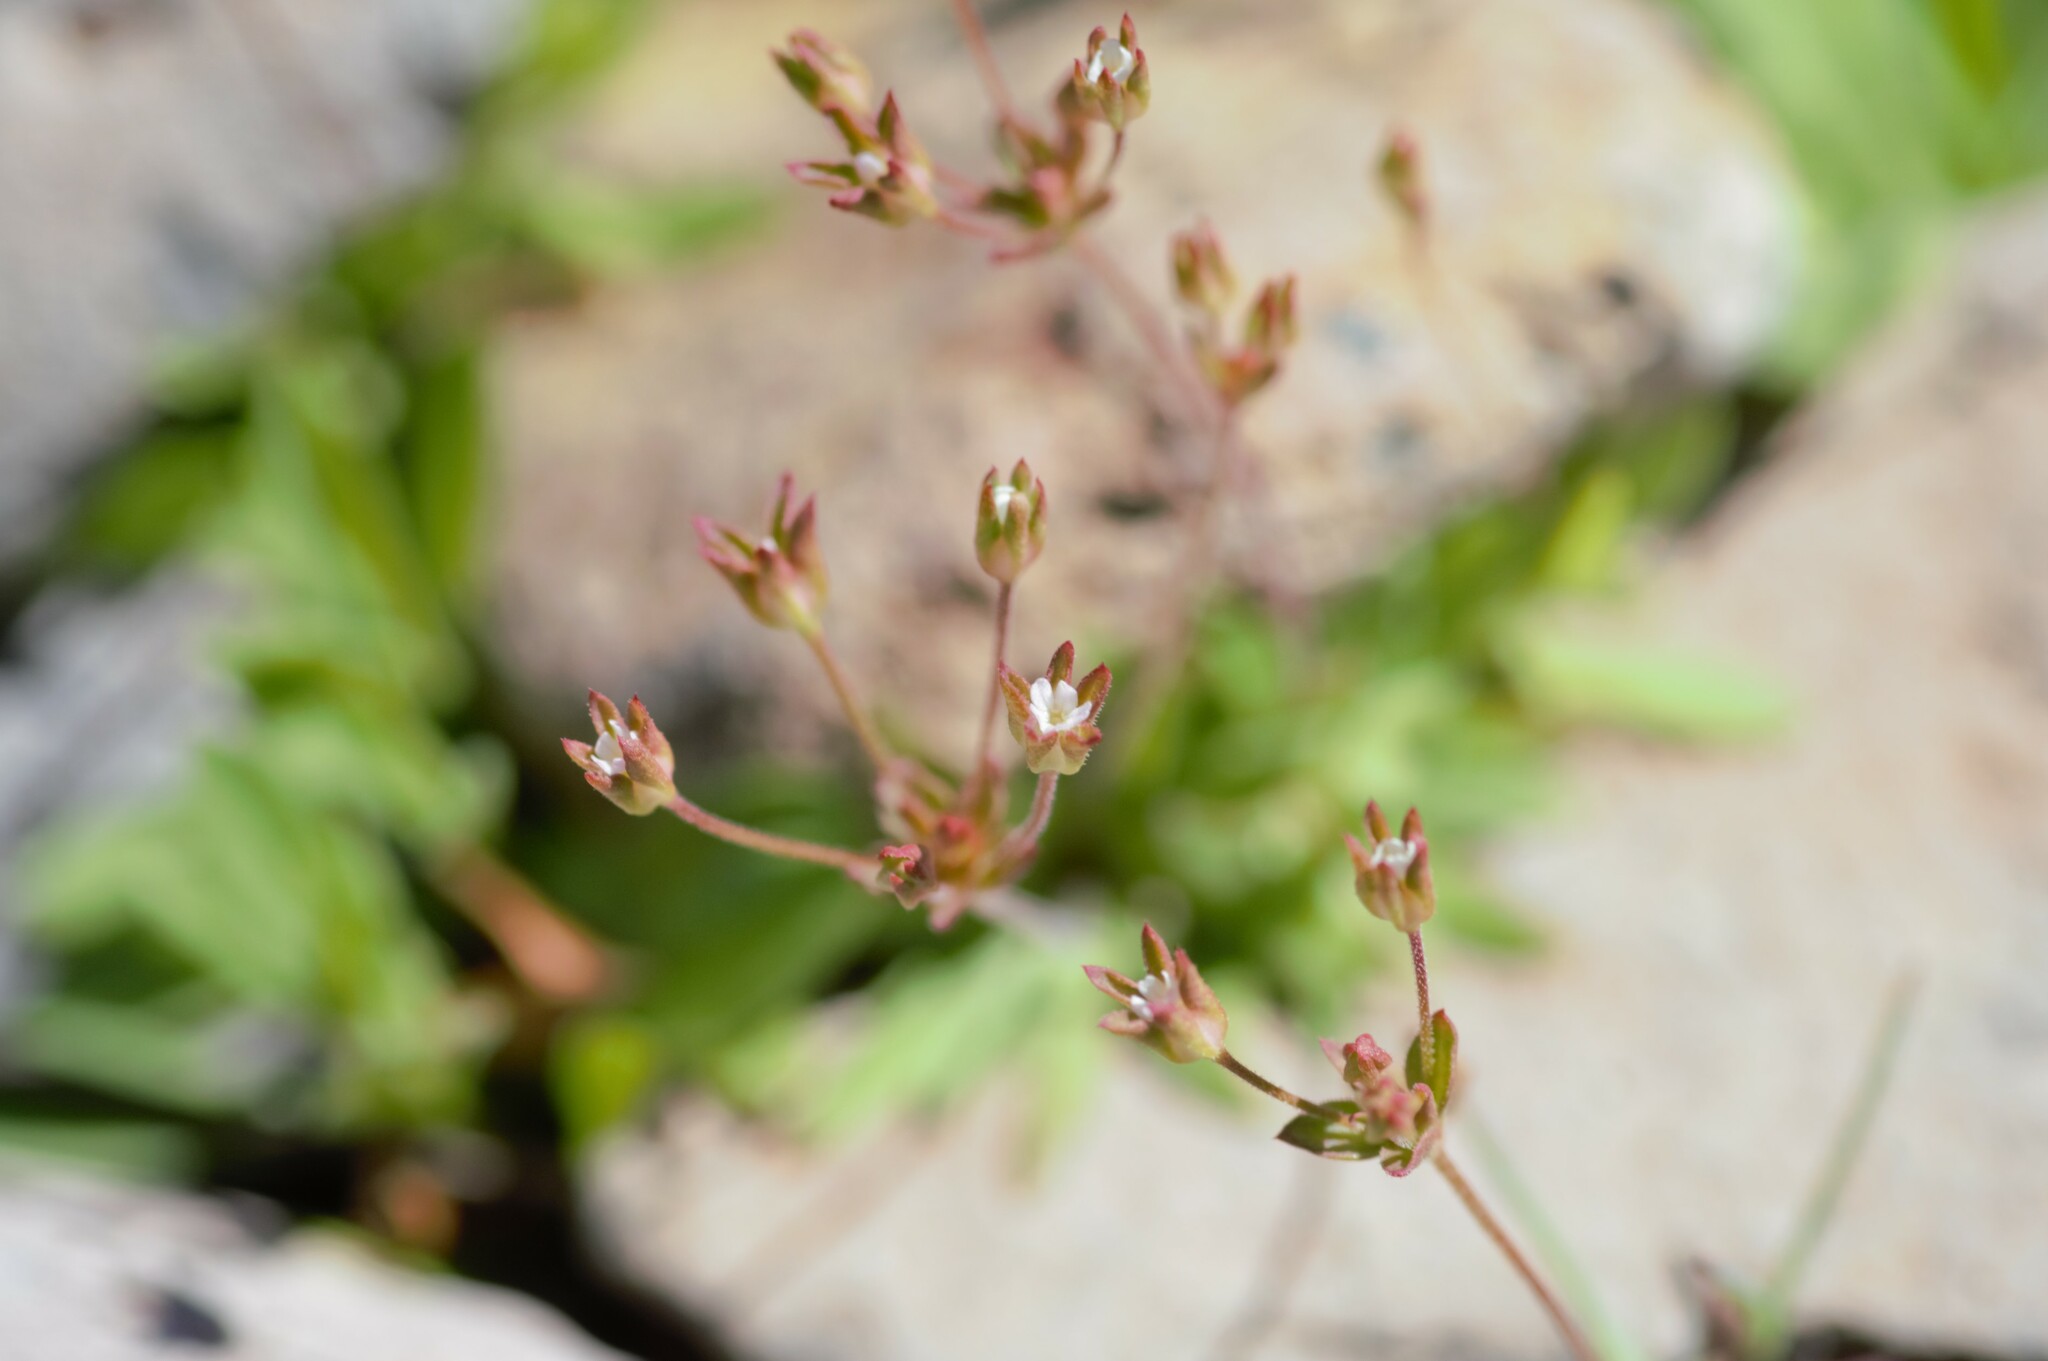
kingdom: Plantae
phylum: Tracheophyta
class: Magnoliopsida
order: Ericales
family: Primulaceae
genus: Androsace
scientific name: Androsace occidentalis
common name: West rock-jasmine
